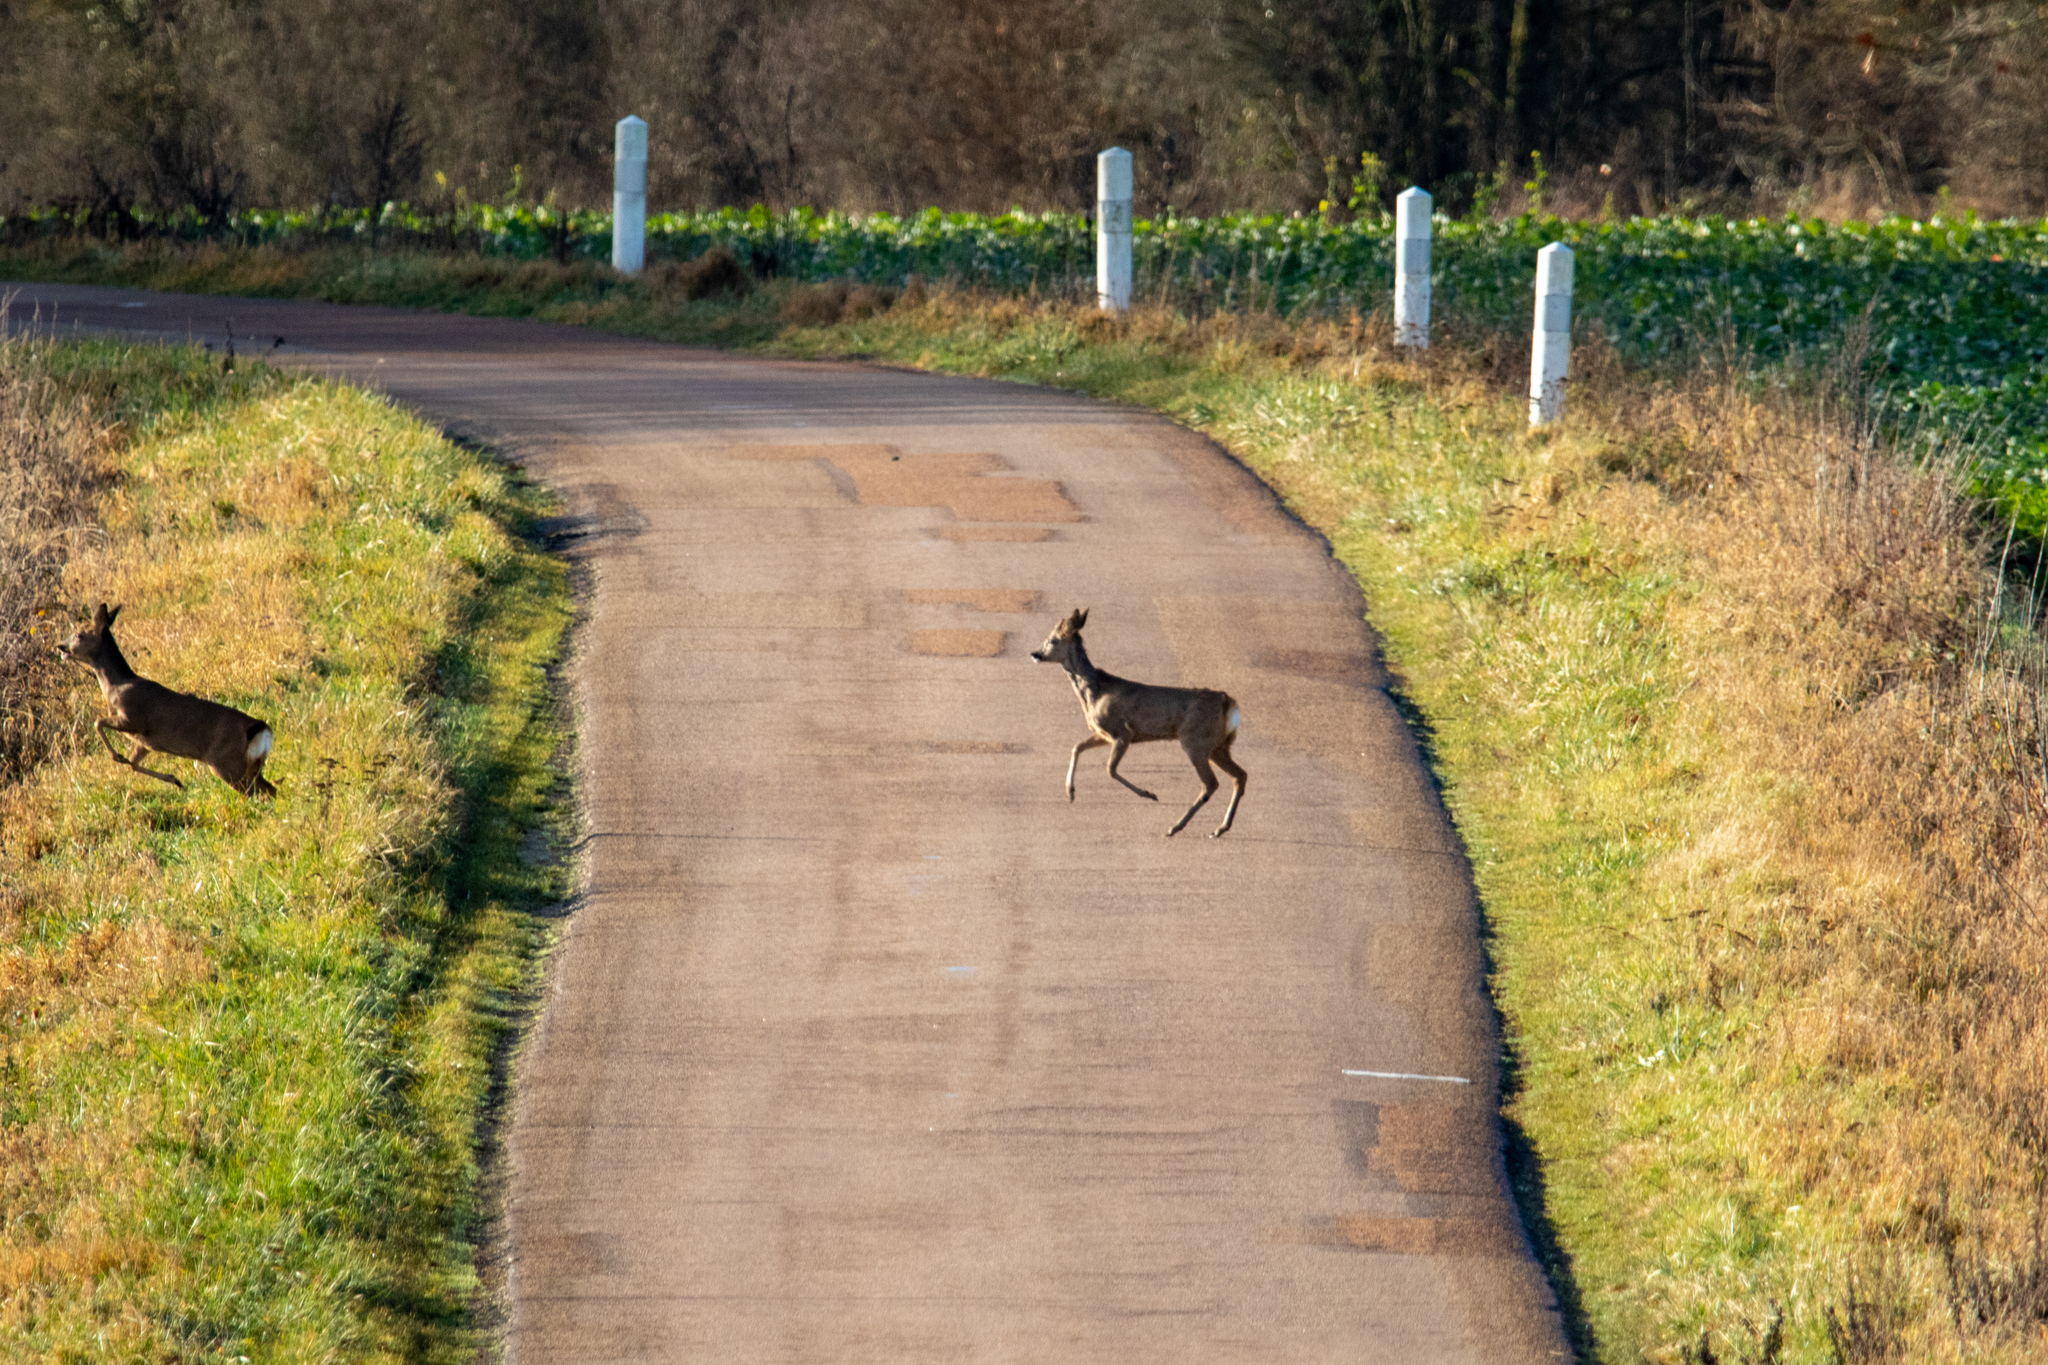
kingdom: Animalia
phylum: Chordata
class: Mammalia
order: Artiodactyla
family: Cervidae
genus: Capreolus
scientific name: Capreolus capreolus
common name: Western roe deer
